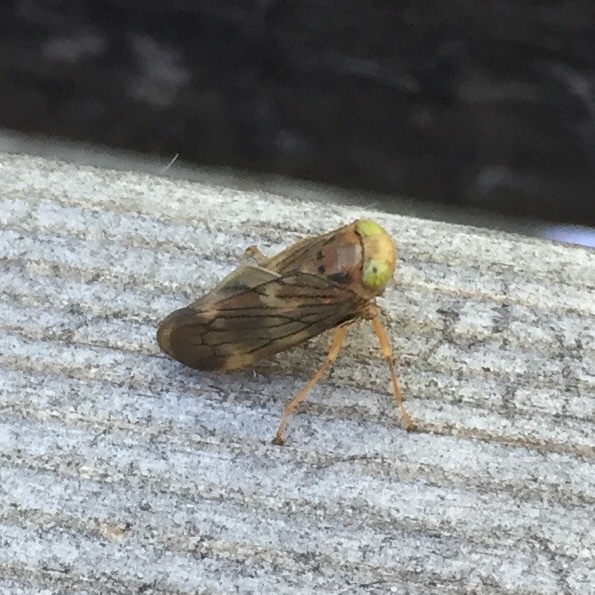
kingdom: Animalia
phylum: Arthropoda
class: Insecta
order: Hemiptera
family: Cicadellidae
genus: Jikradia
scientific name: Jikradia olitoria
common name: Coppery leafhopper
